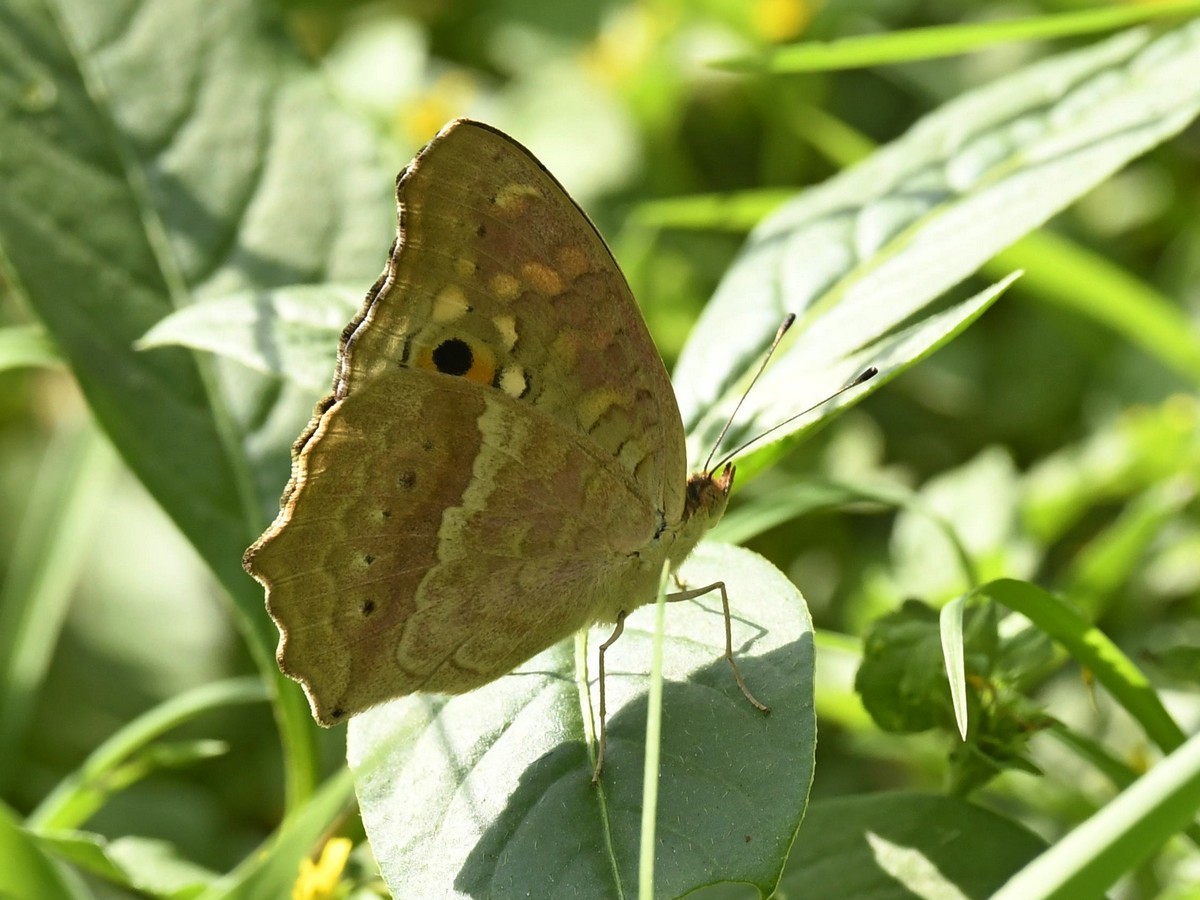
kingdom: Animalia
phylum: Arthropoda
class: Insecta
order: Lepidoptera
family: Nymphalidae
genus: Junonia
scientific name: Junonia lemonias
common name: Lemon pansy
